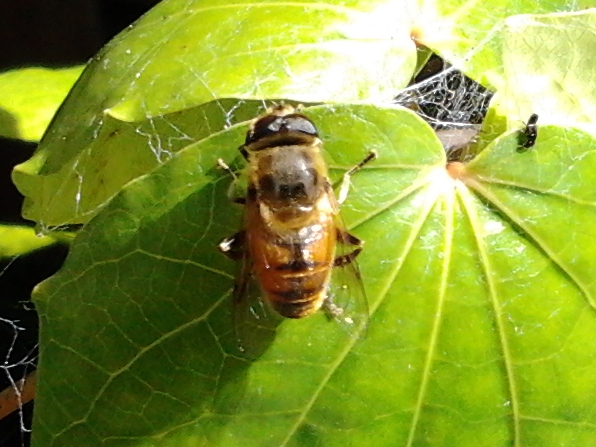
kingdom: Animalia
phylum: Arthropoda
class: Insecta
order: Diptera
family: Syrphidae
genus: Eristalis
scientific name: Eristalis tenax
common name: Drone fly
